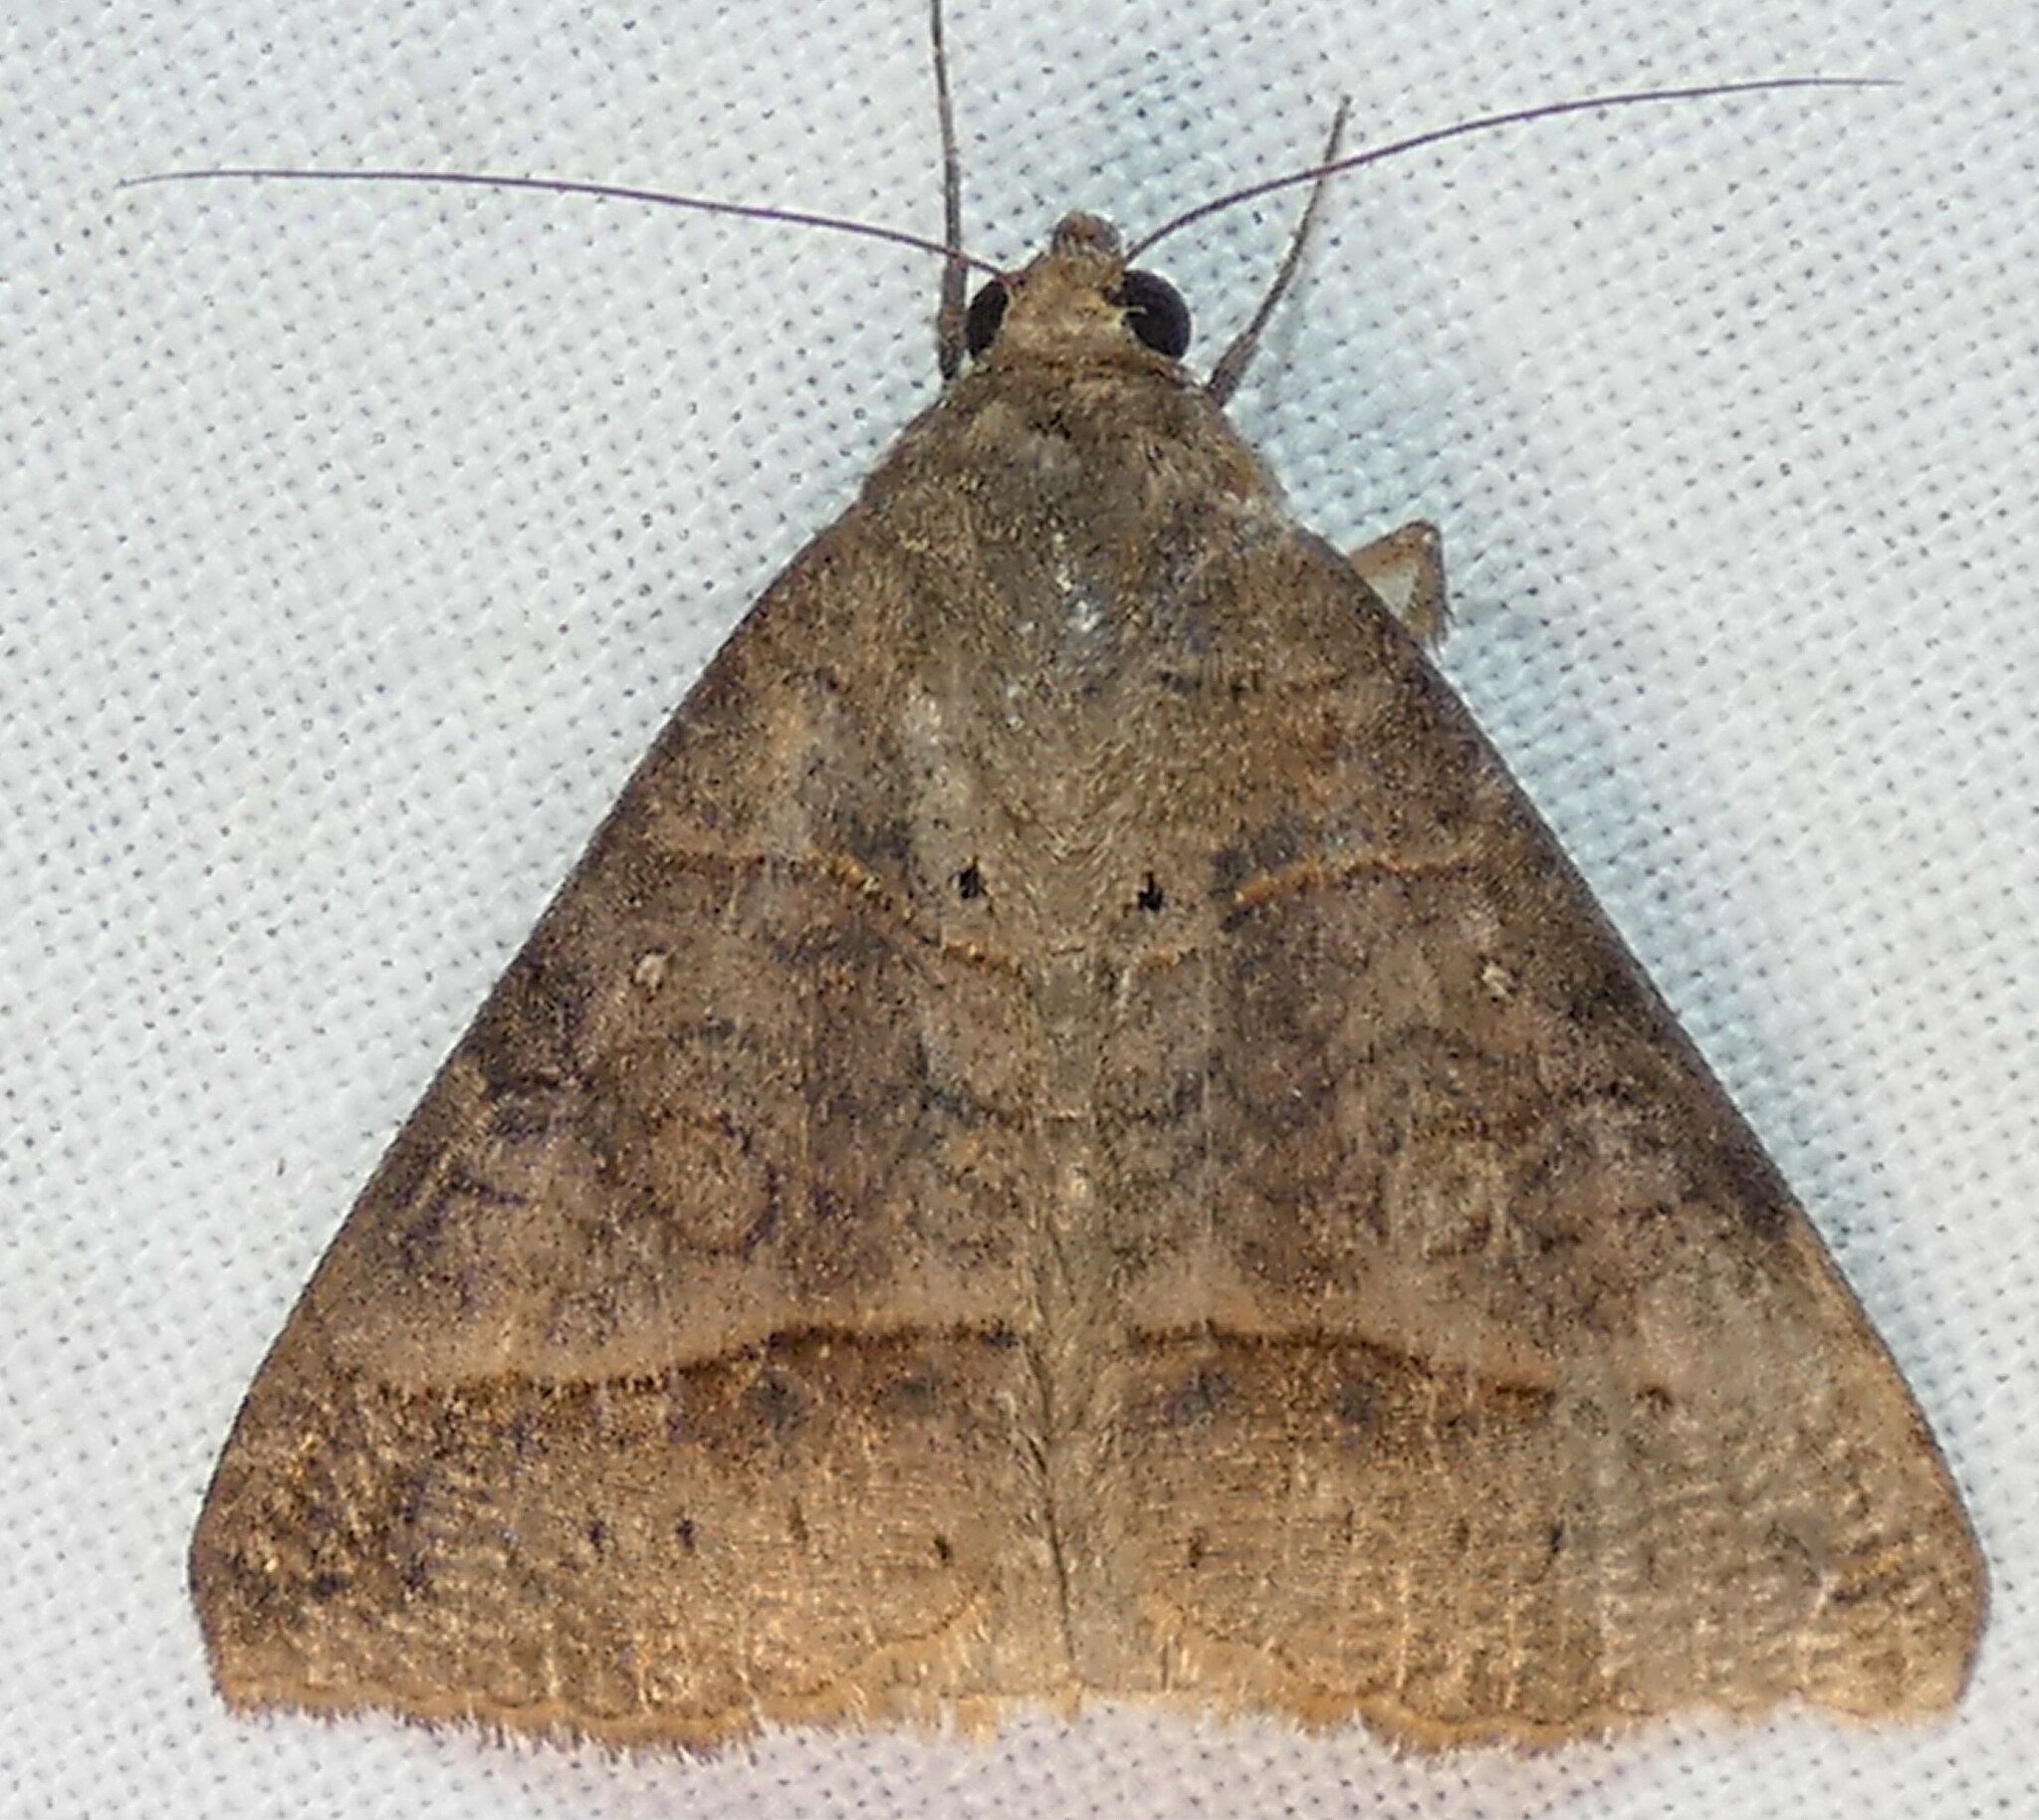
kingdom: Animalia
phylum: Arthropoda
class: Insecta
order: Lepidoptera
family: Erebidae
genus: Mocis
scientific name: Mocis latipes
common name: Striped grass looper
